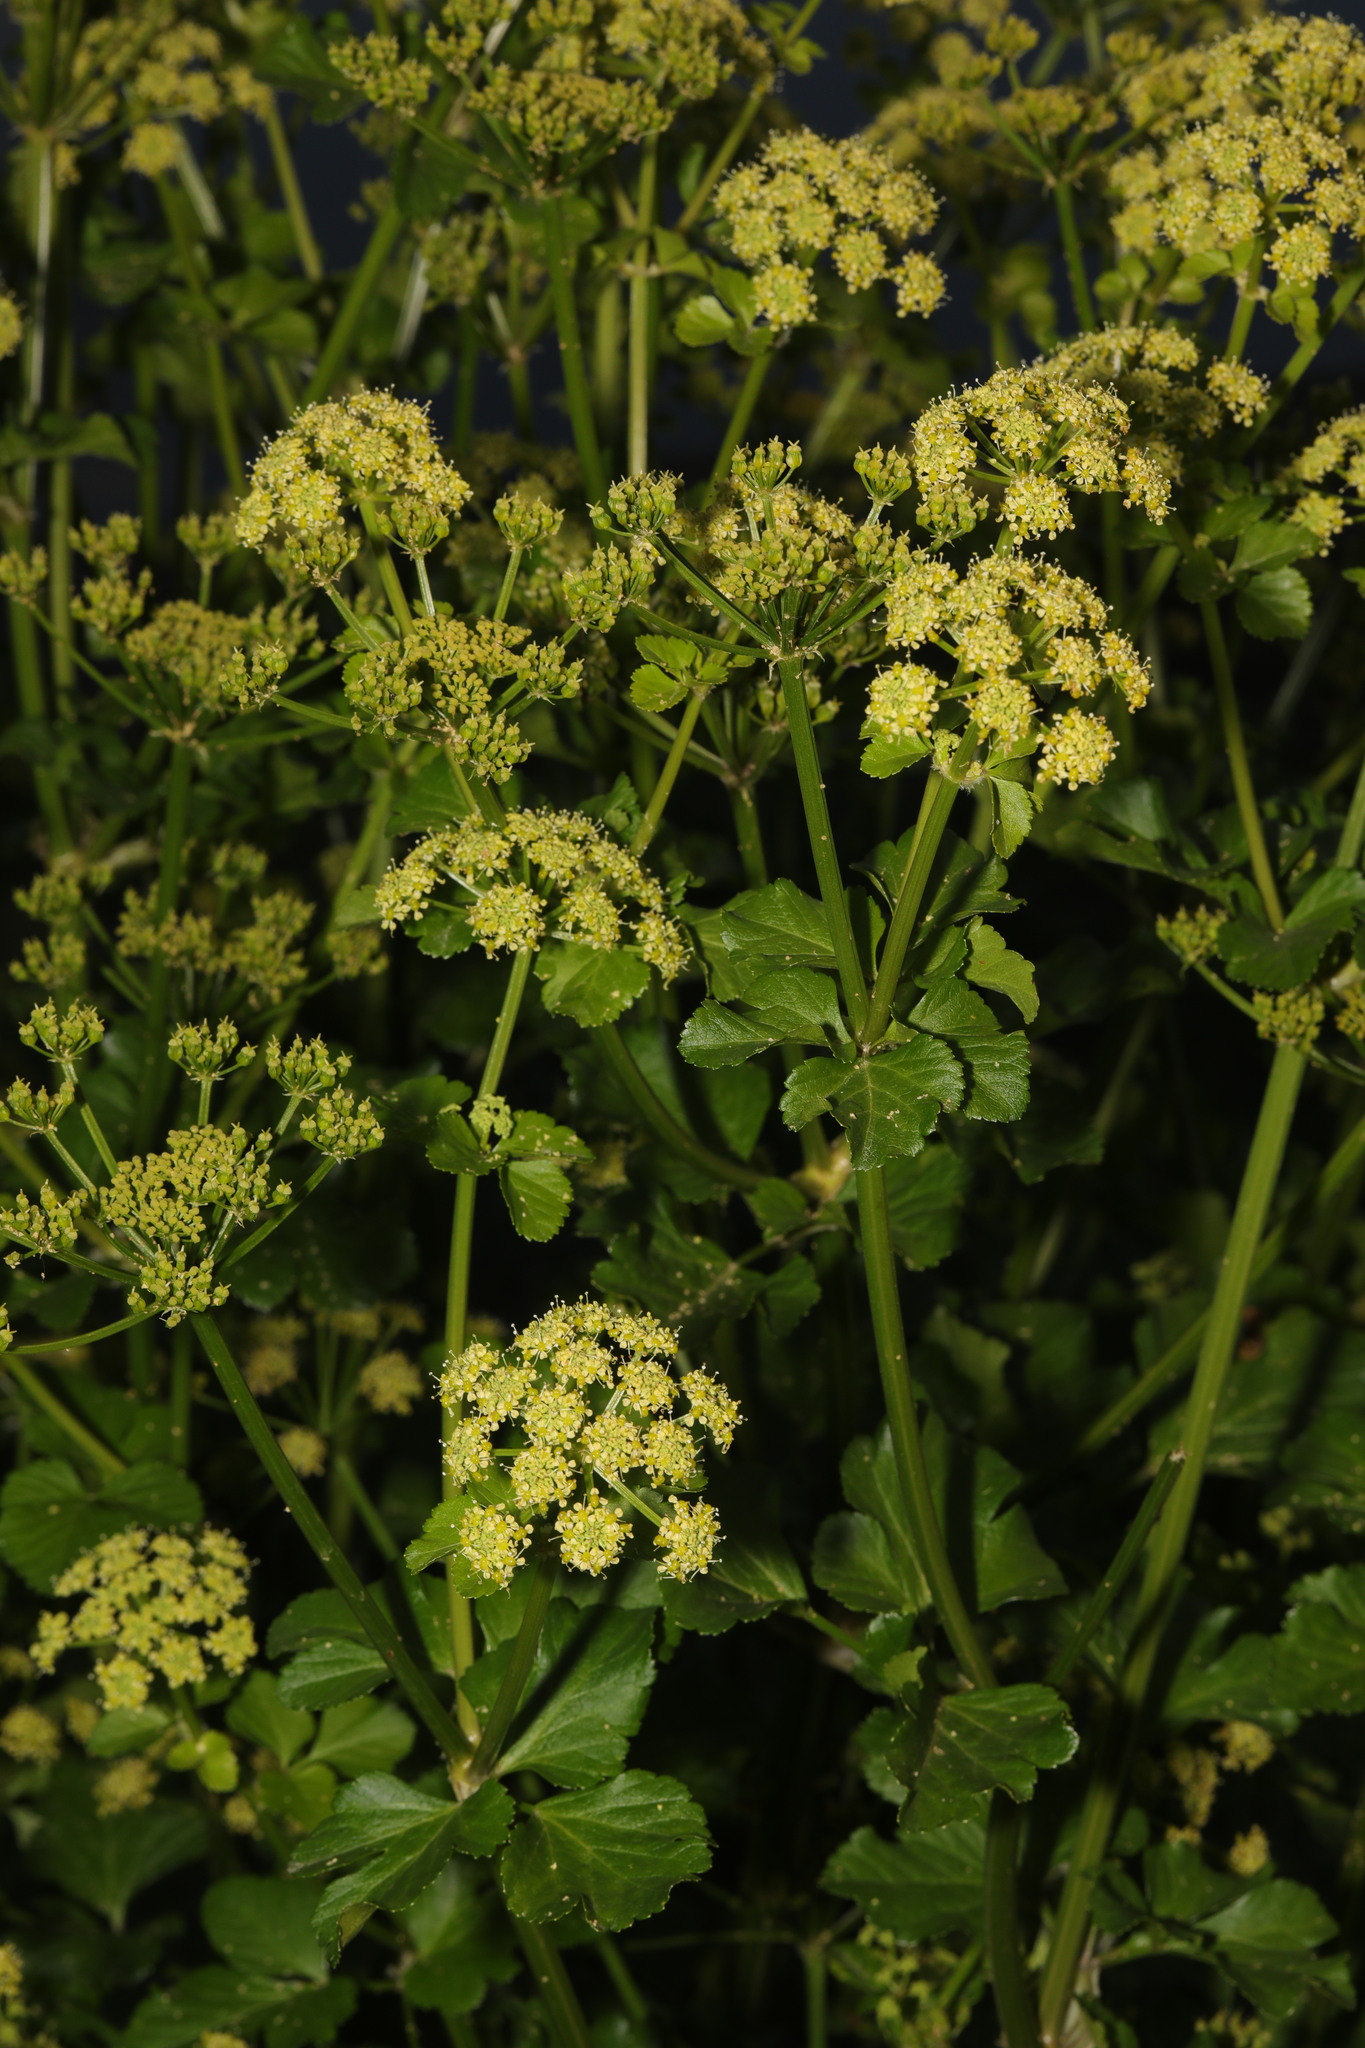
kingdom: Plantae
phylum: Tracheophyta
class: Magnoliopsida
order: Apiales
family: Apiaceae
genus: Smyrnium
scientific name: Smyrnium olusatrum
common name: Alexanders
